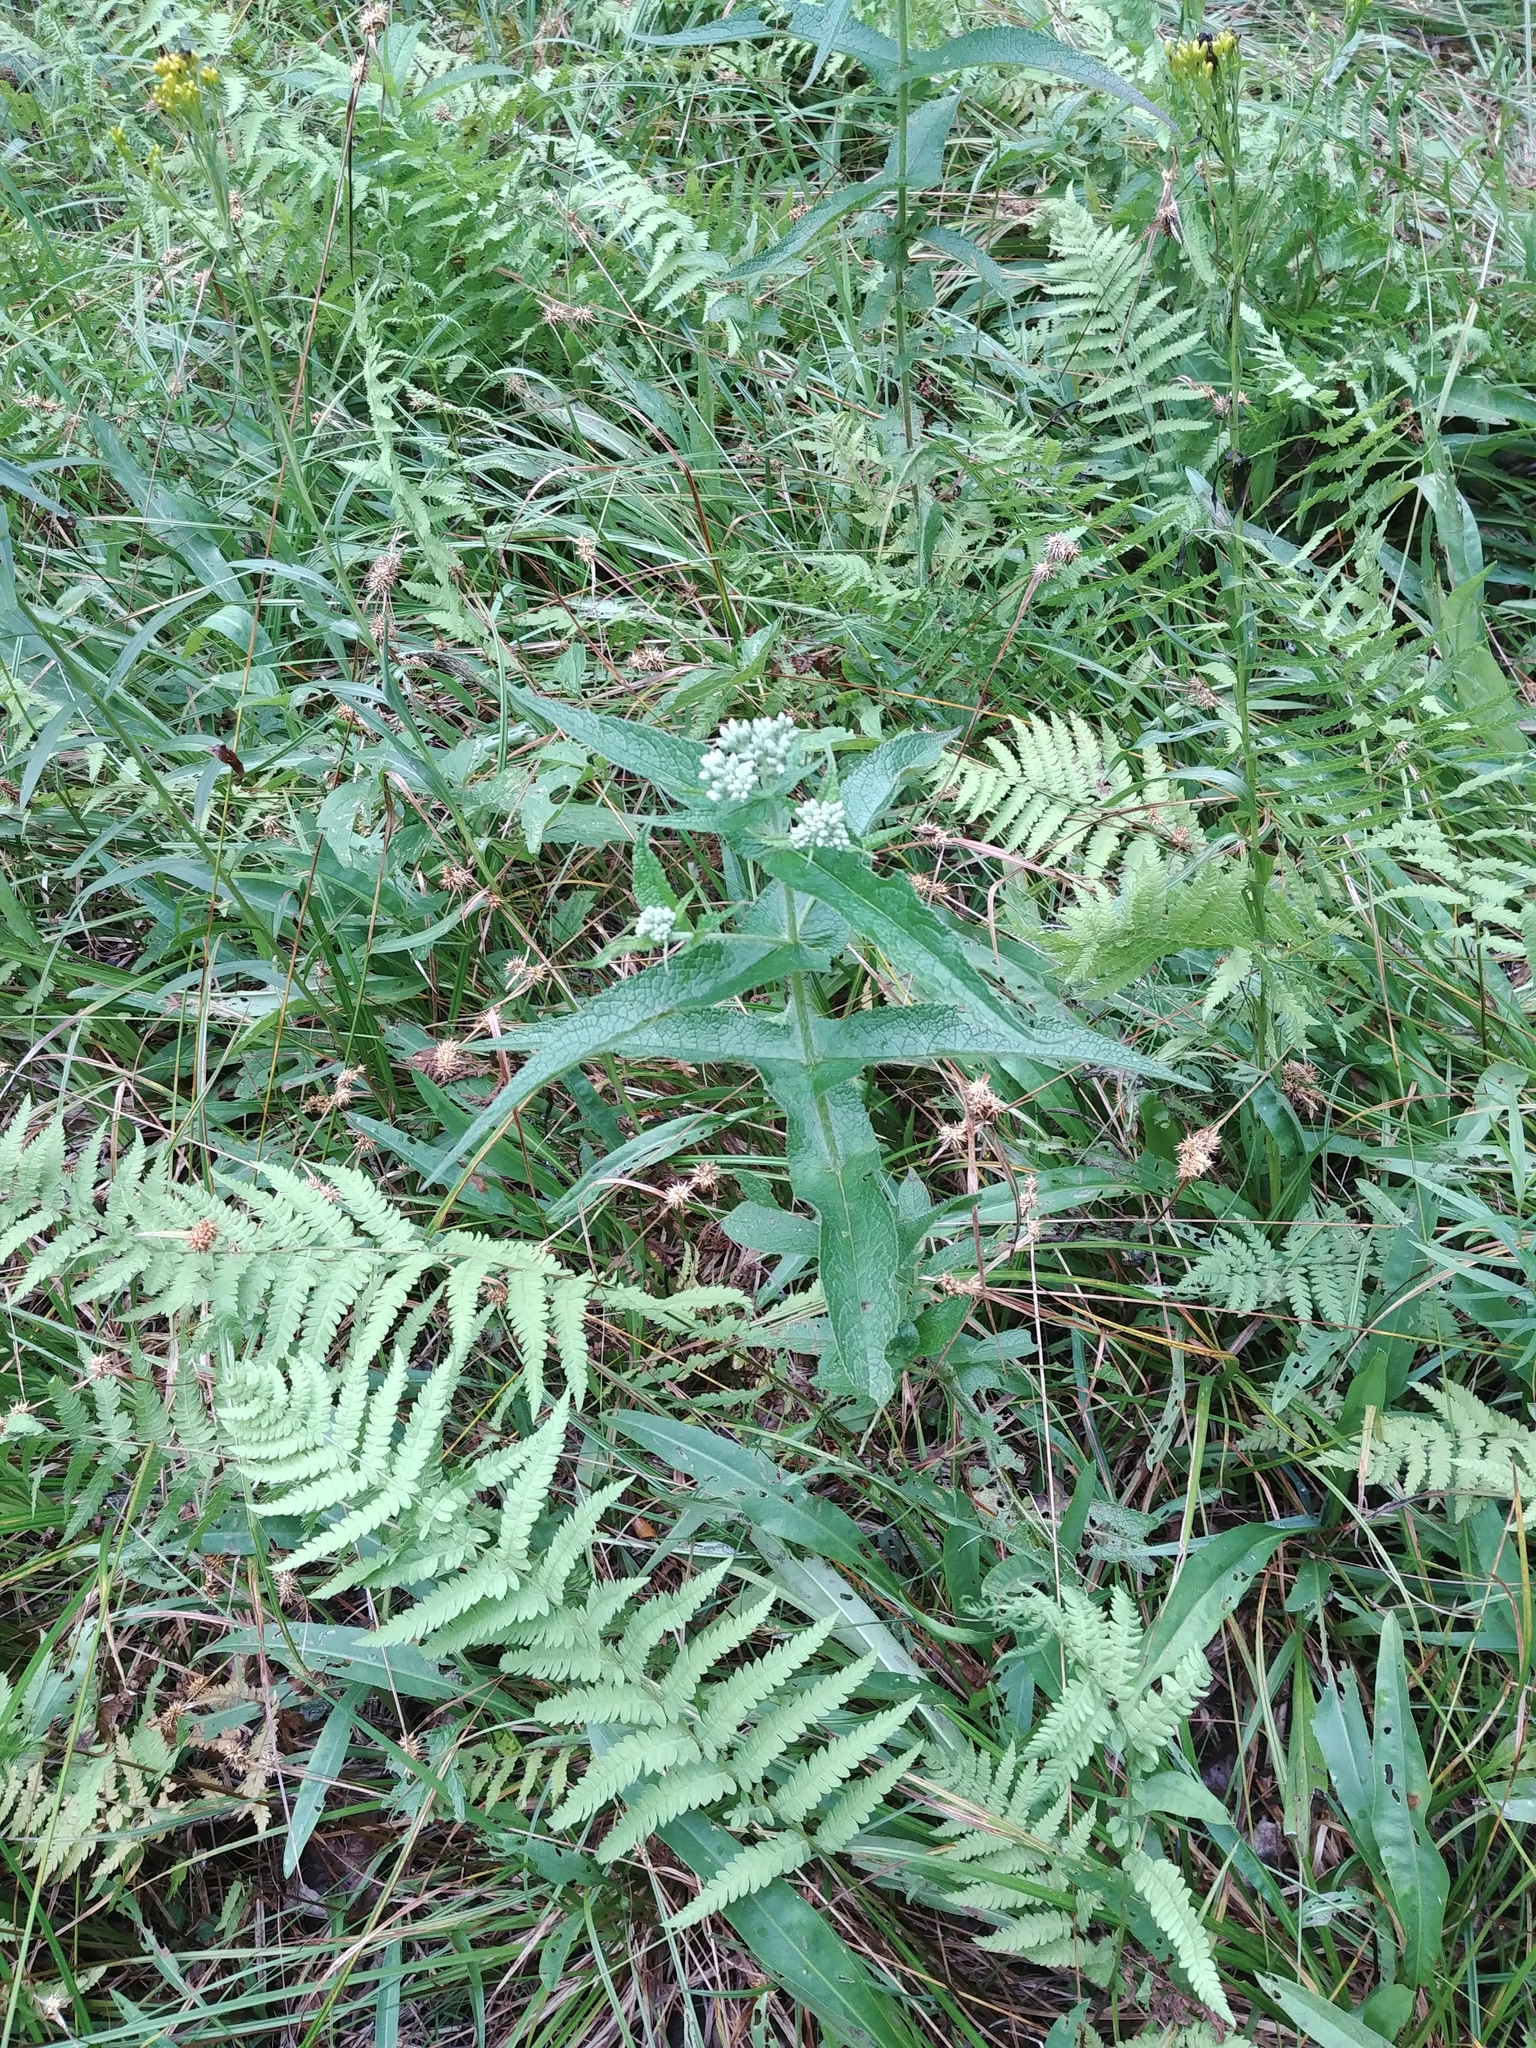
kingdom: Plantae
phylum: Tracheophyta
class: Polypodiopsida
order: Polypodiales
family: Thelypteridaceae
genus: Thelypteris
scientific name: Thelypteris palustris
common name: Marsh fern
